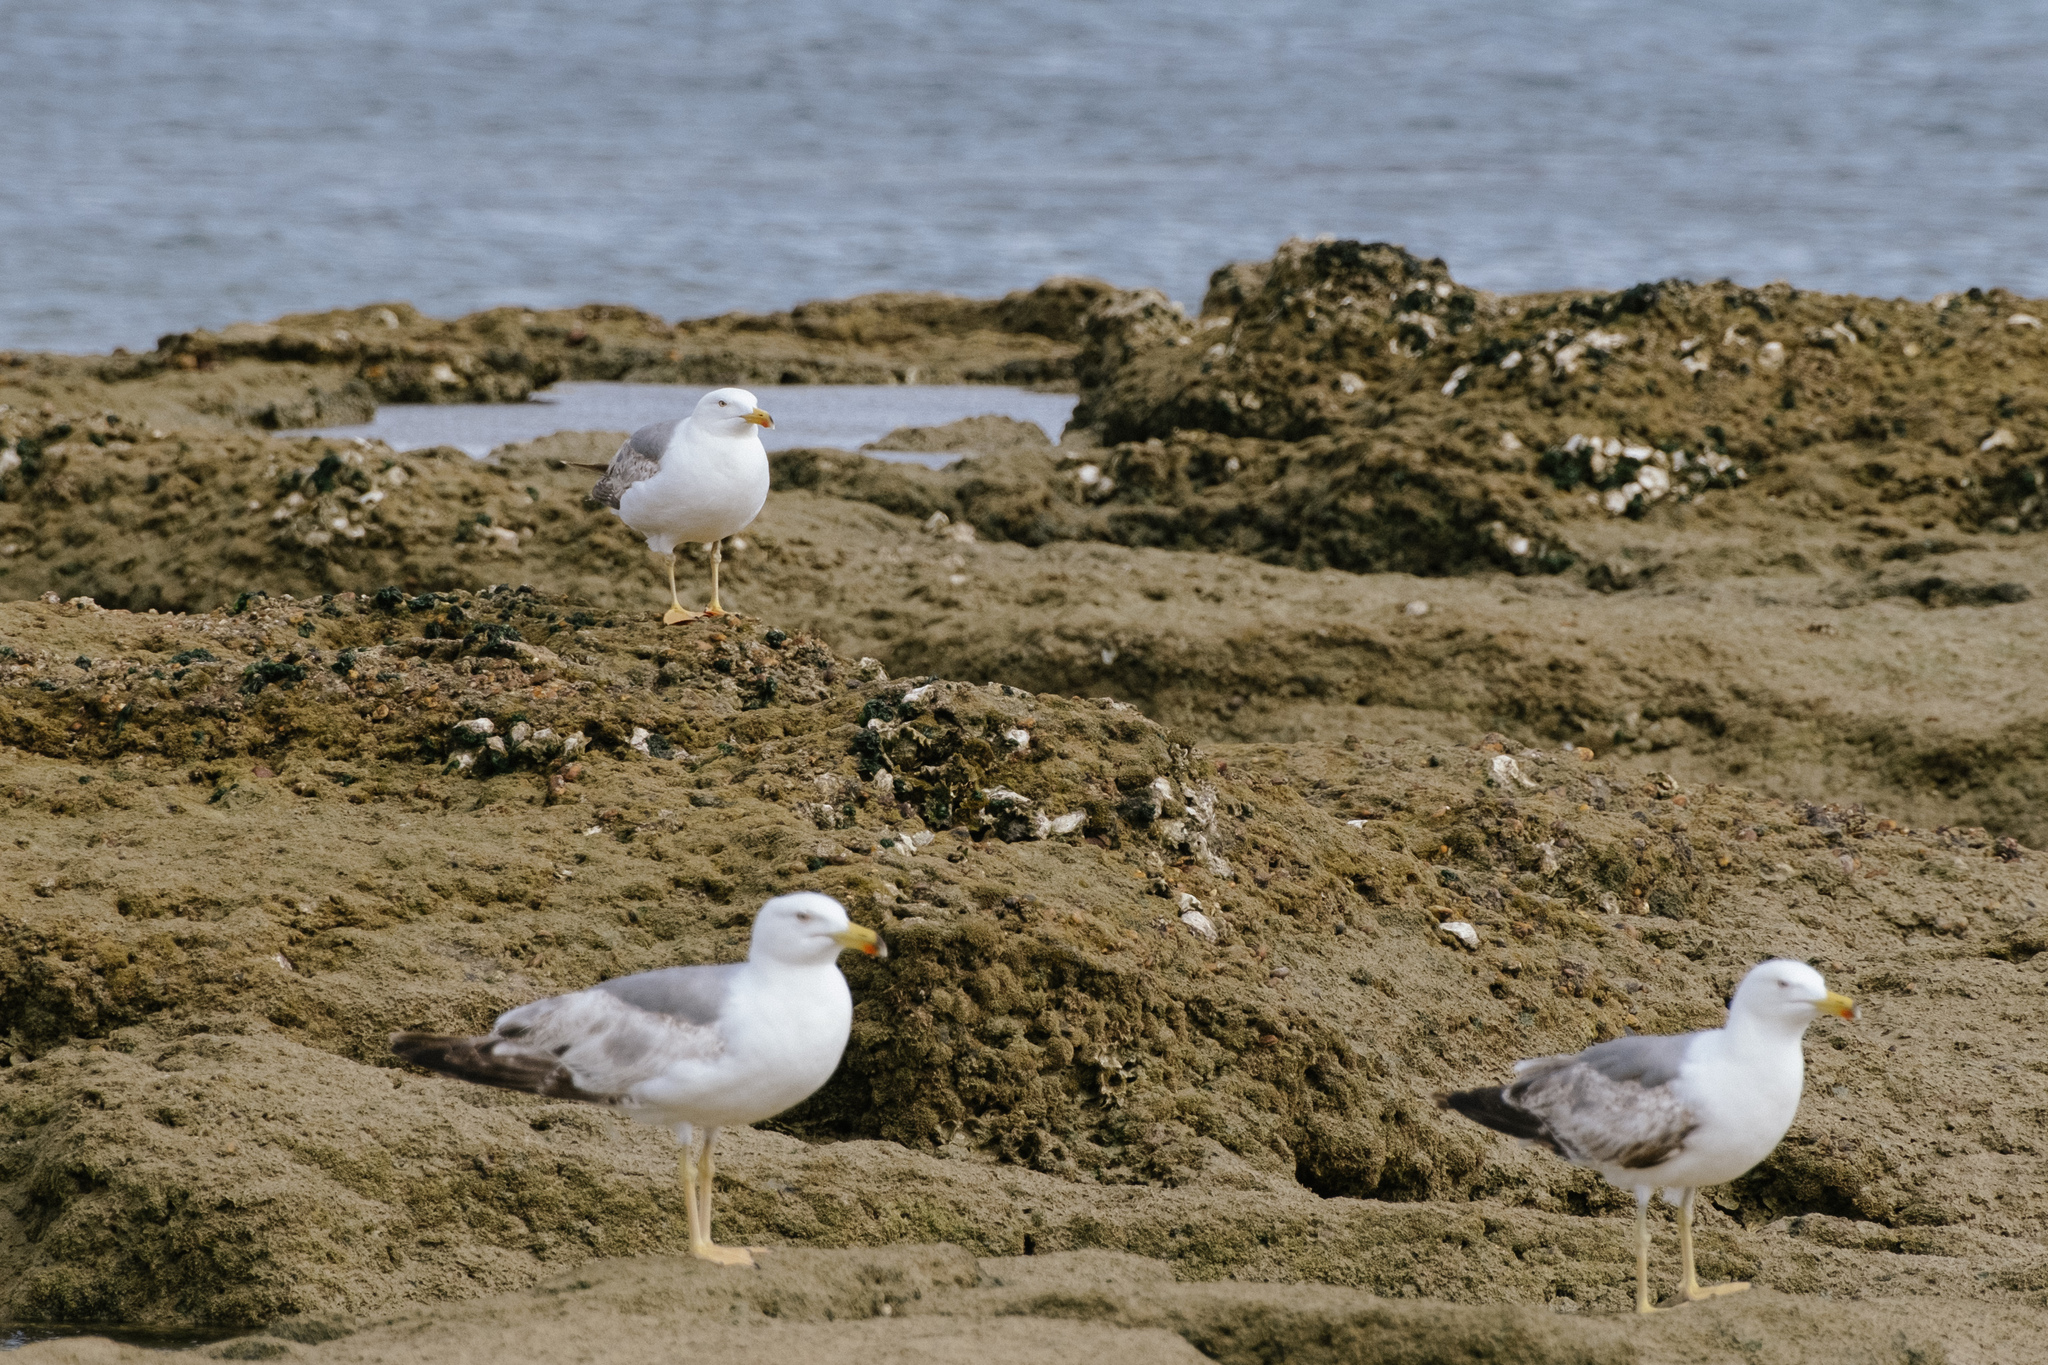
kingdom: Animalia
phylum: Chordata
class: Aves
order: Charadriiformes
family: Laridae
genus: Larus
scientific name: Larus michahellis
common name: Yellow-legged gull
